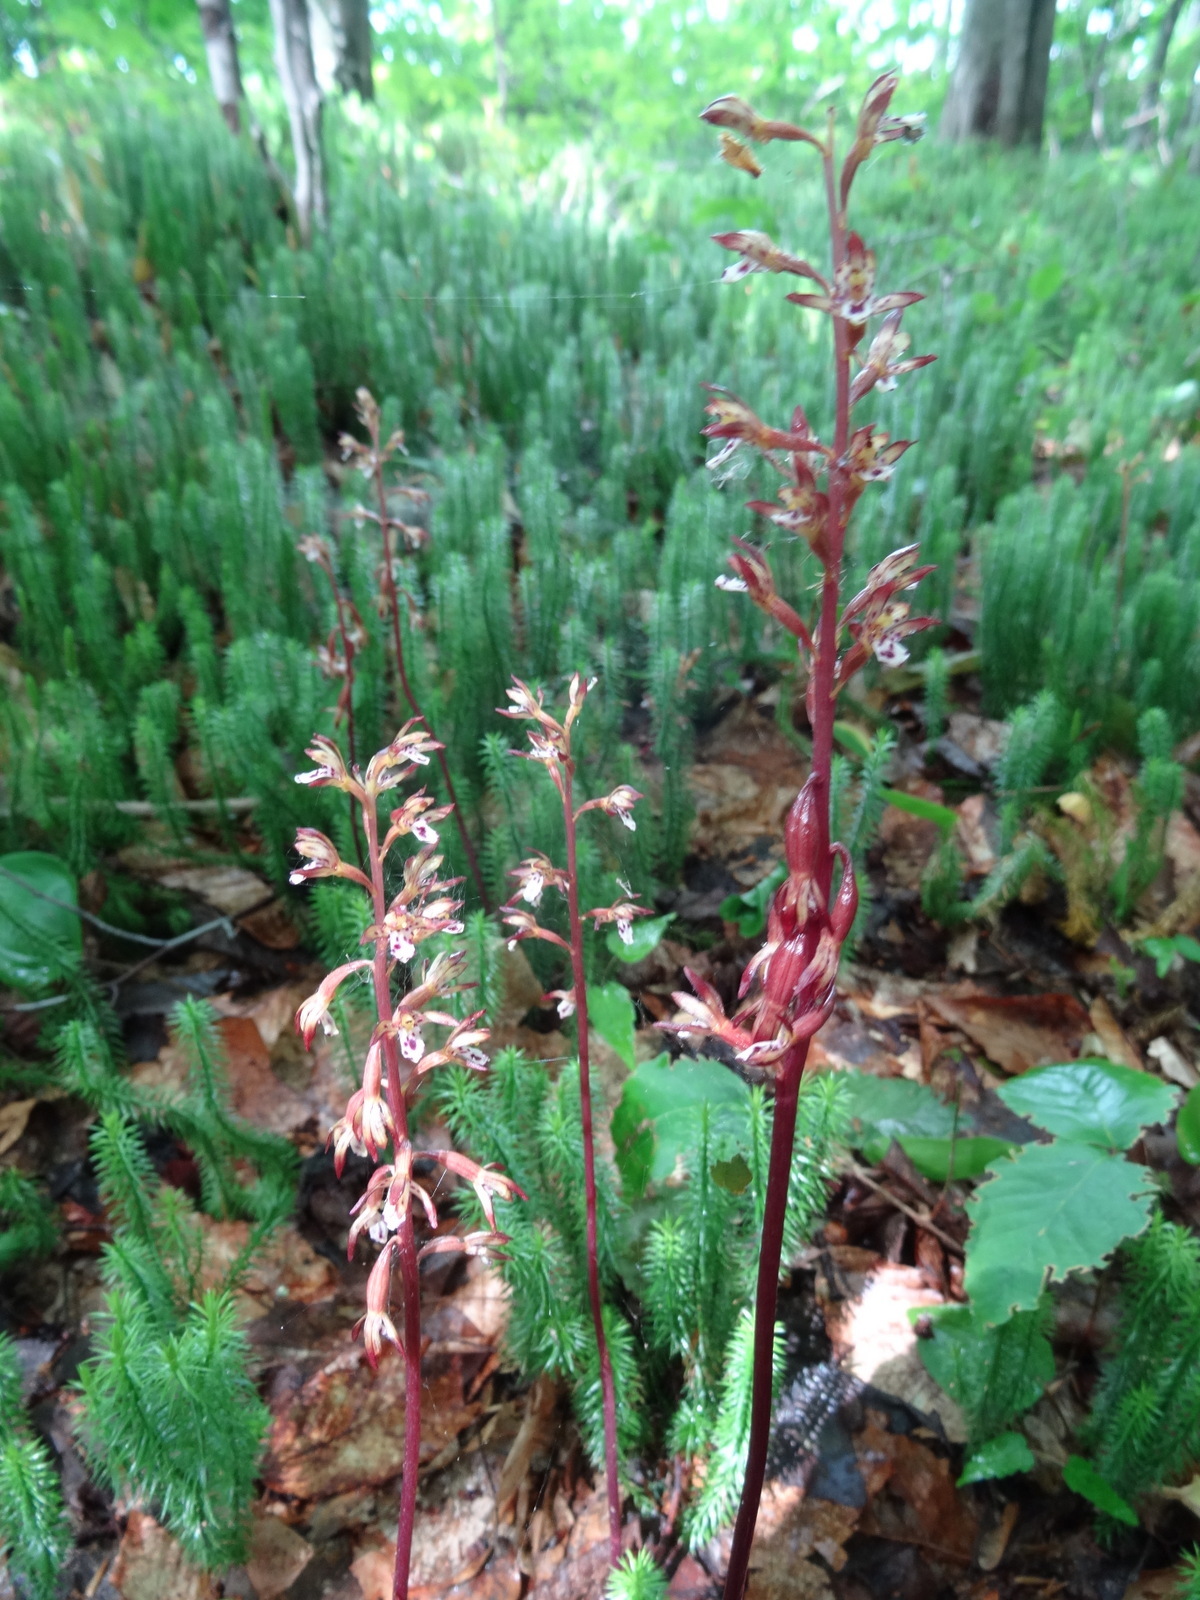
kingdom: Plantae
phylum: Tracheophyta
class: Liliopsida
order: Asparagales
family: Orchidaceae
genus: Corallorhiza
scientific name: Corallorhiza maculata
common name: Spotted coralroot
